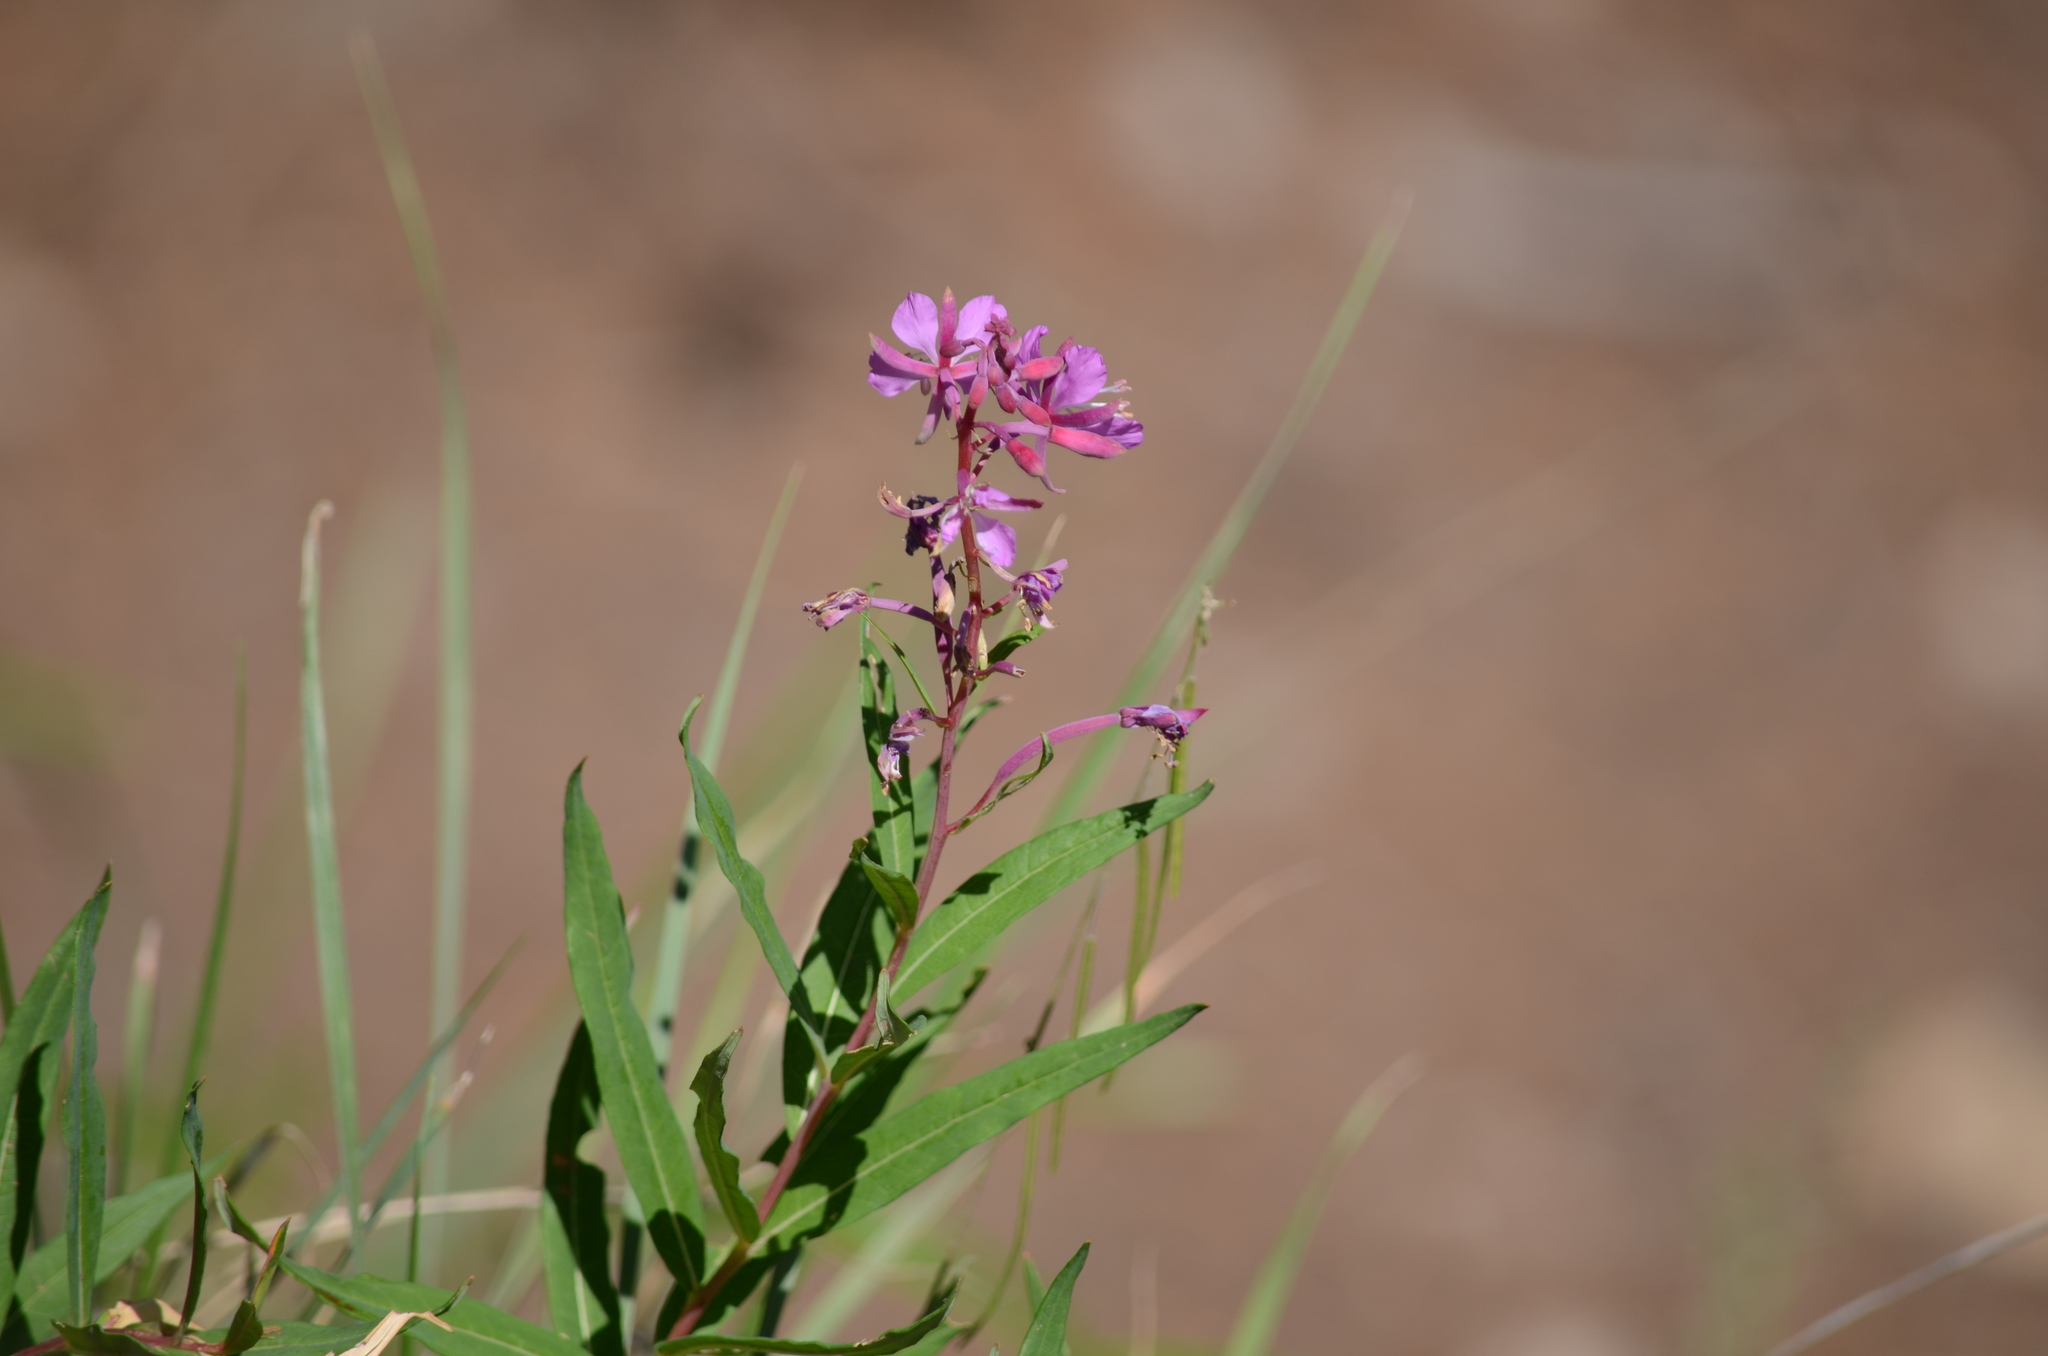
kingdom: Plantae
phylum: Tracheophyta
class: Magnoliopsida
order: Myrtales
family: Onagraceae
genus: Chamaenerion
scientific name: Chamaenerion angustifolium
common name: Fireweed
